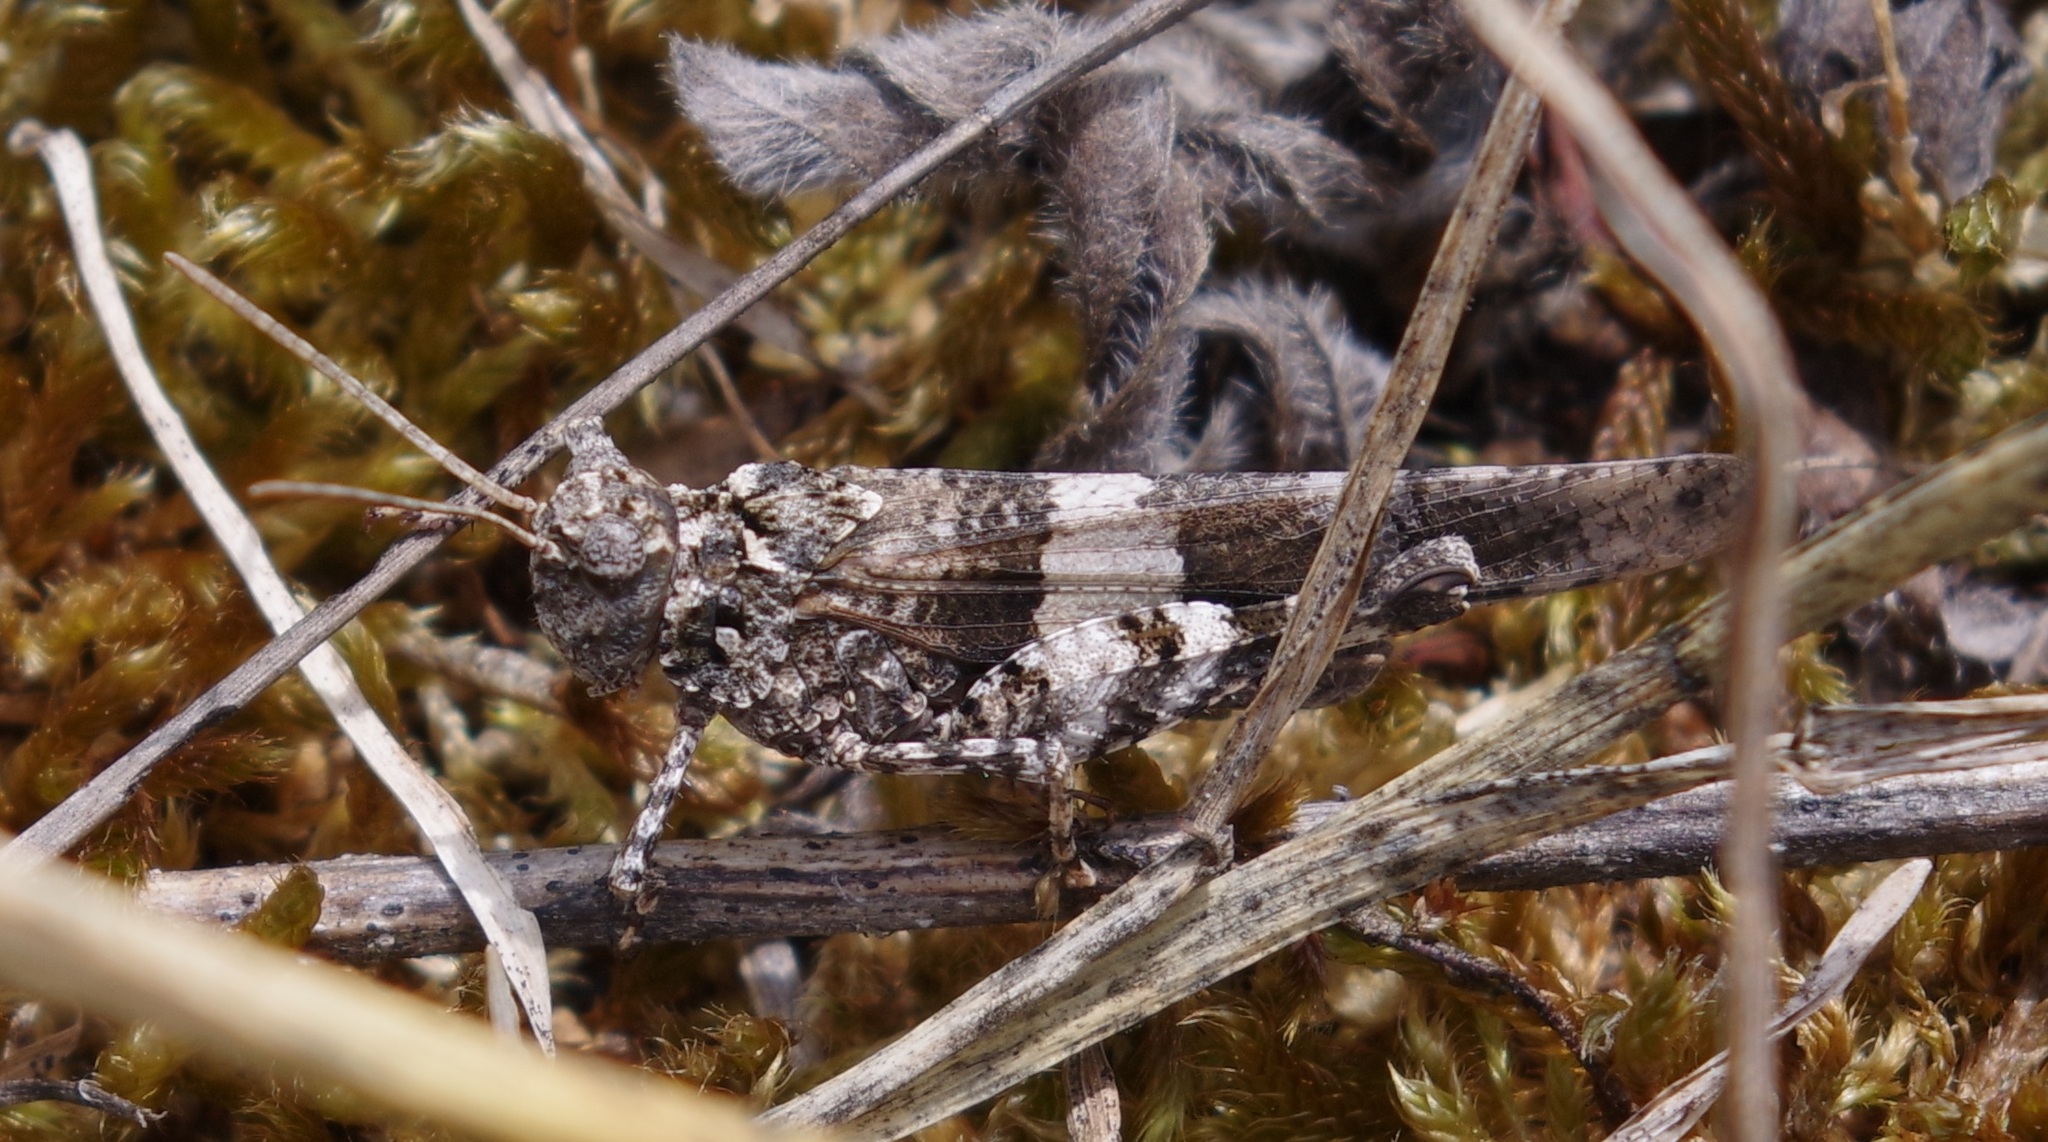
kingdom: Animalia
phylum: Arthropoda
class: Insecta
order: Orthoptera
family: Acrididae
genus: Oedipoda
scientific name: Oedipoda caerulescens
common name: Blue-winged grasshopper
